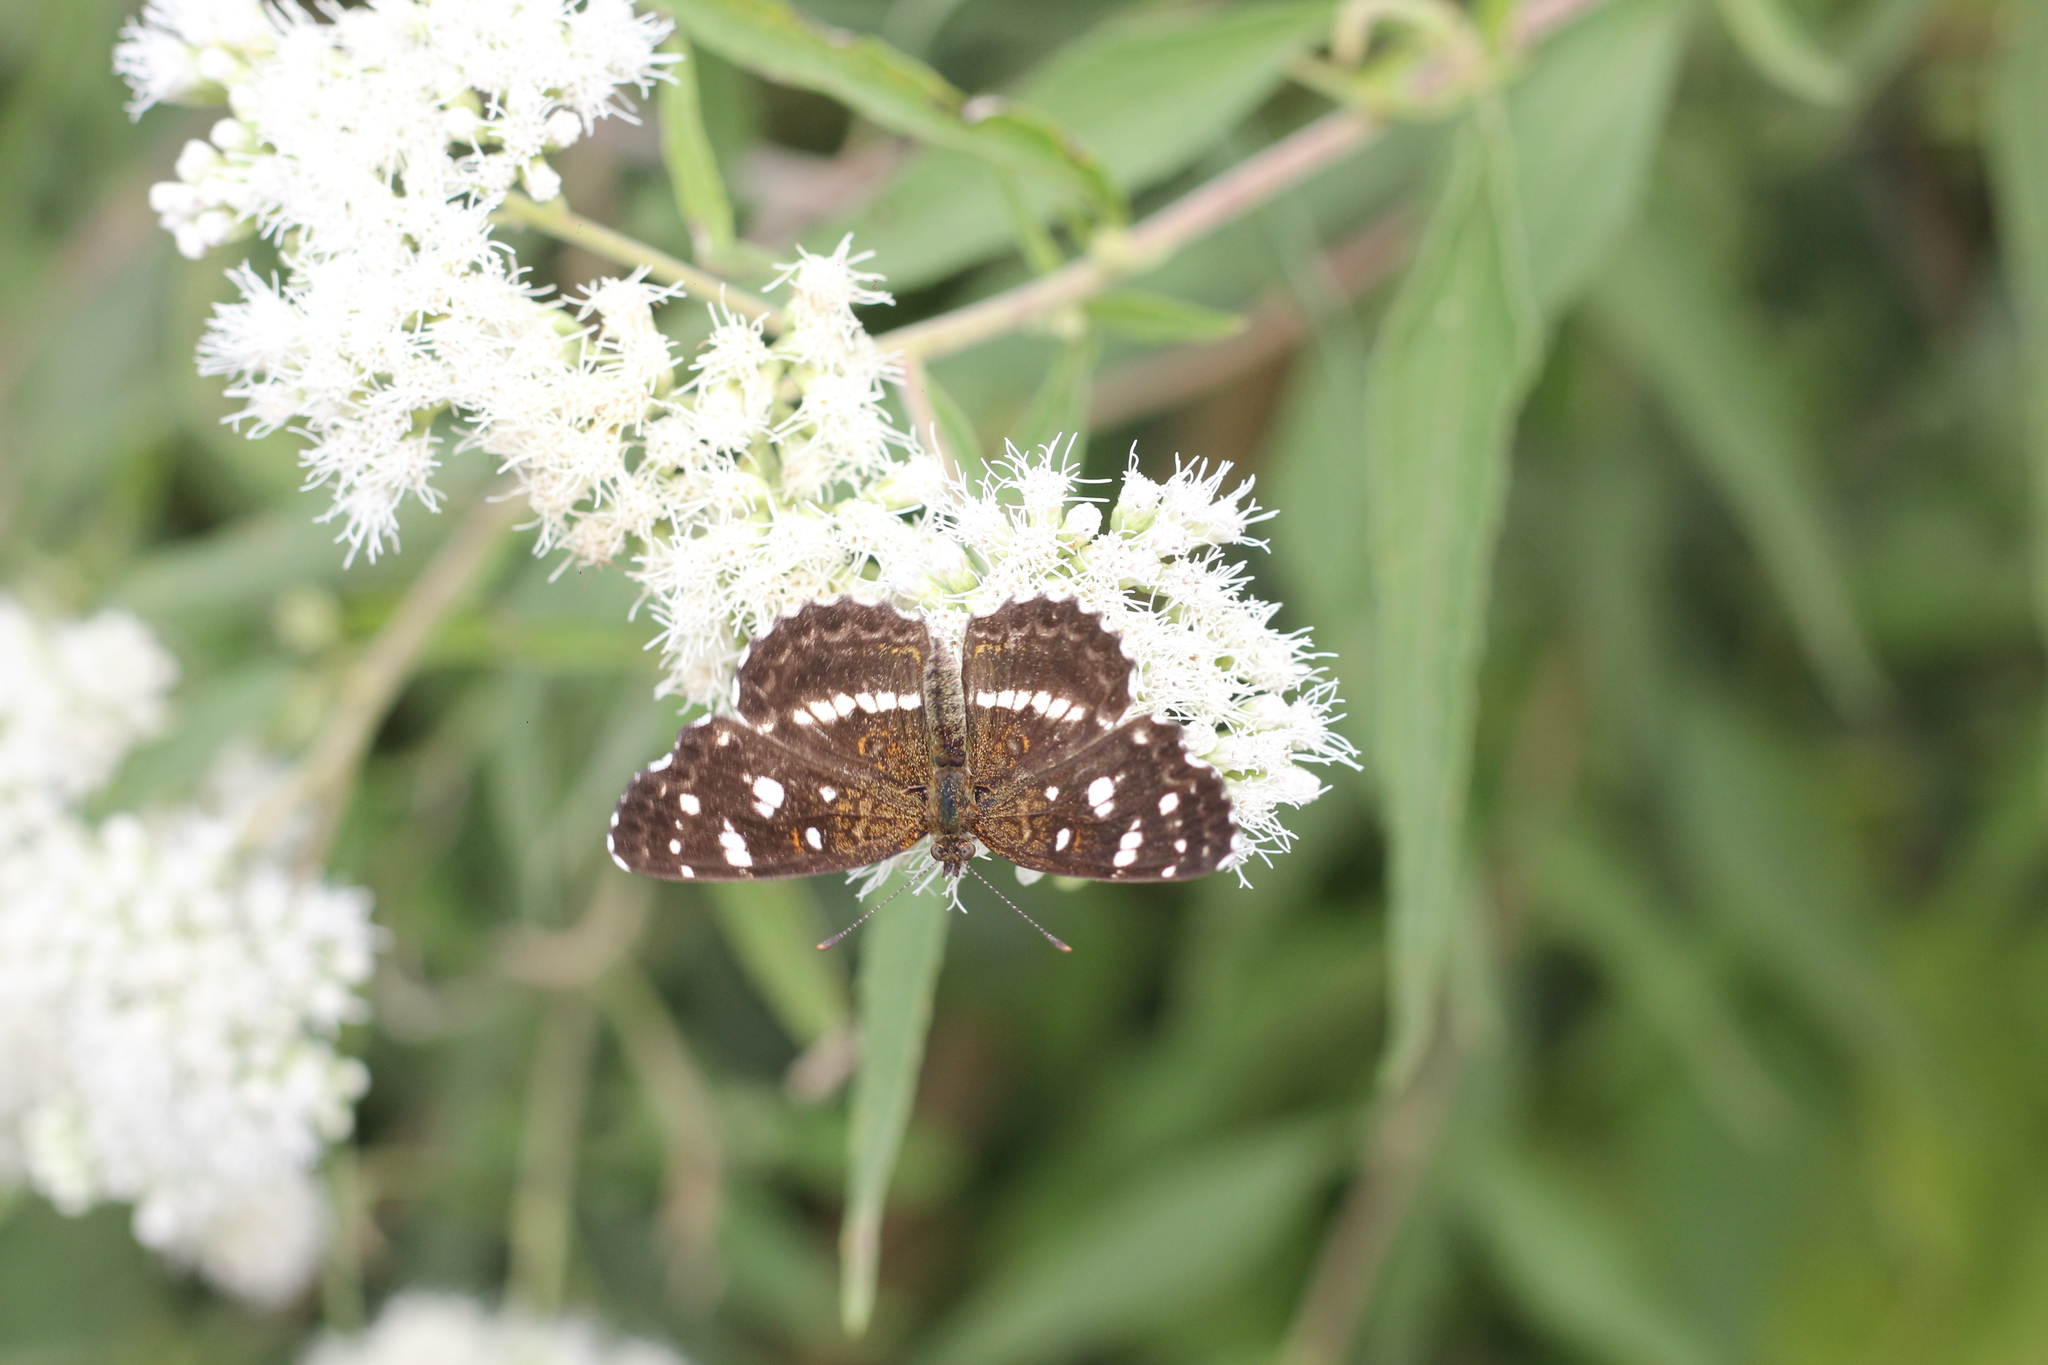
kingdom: Animalia
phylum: Arthropoda
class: Insecta
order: Lepidoptera
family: Nymphalidae
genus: Ortilia
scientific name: Ortilia ithra
